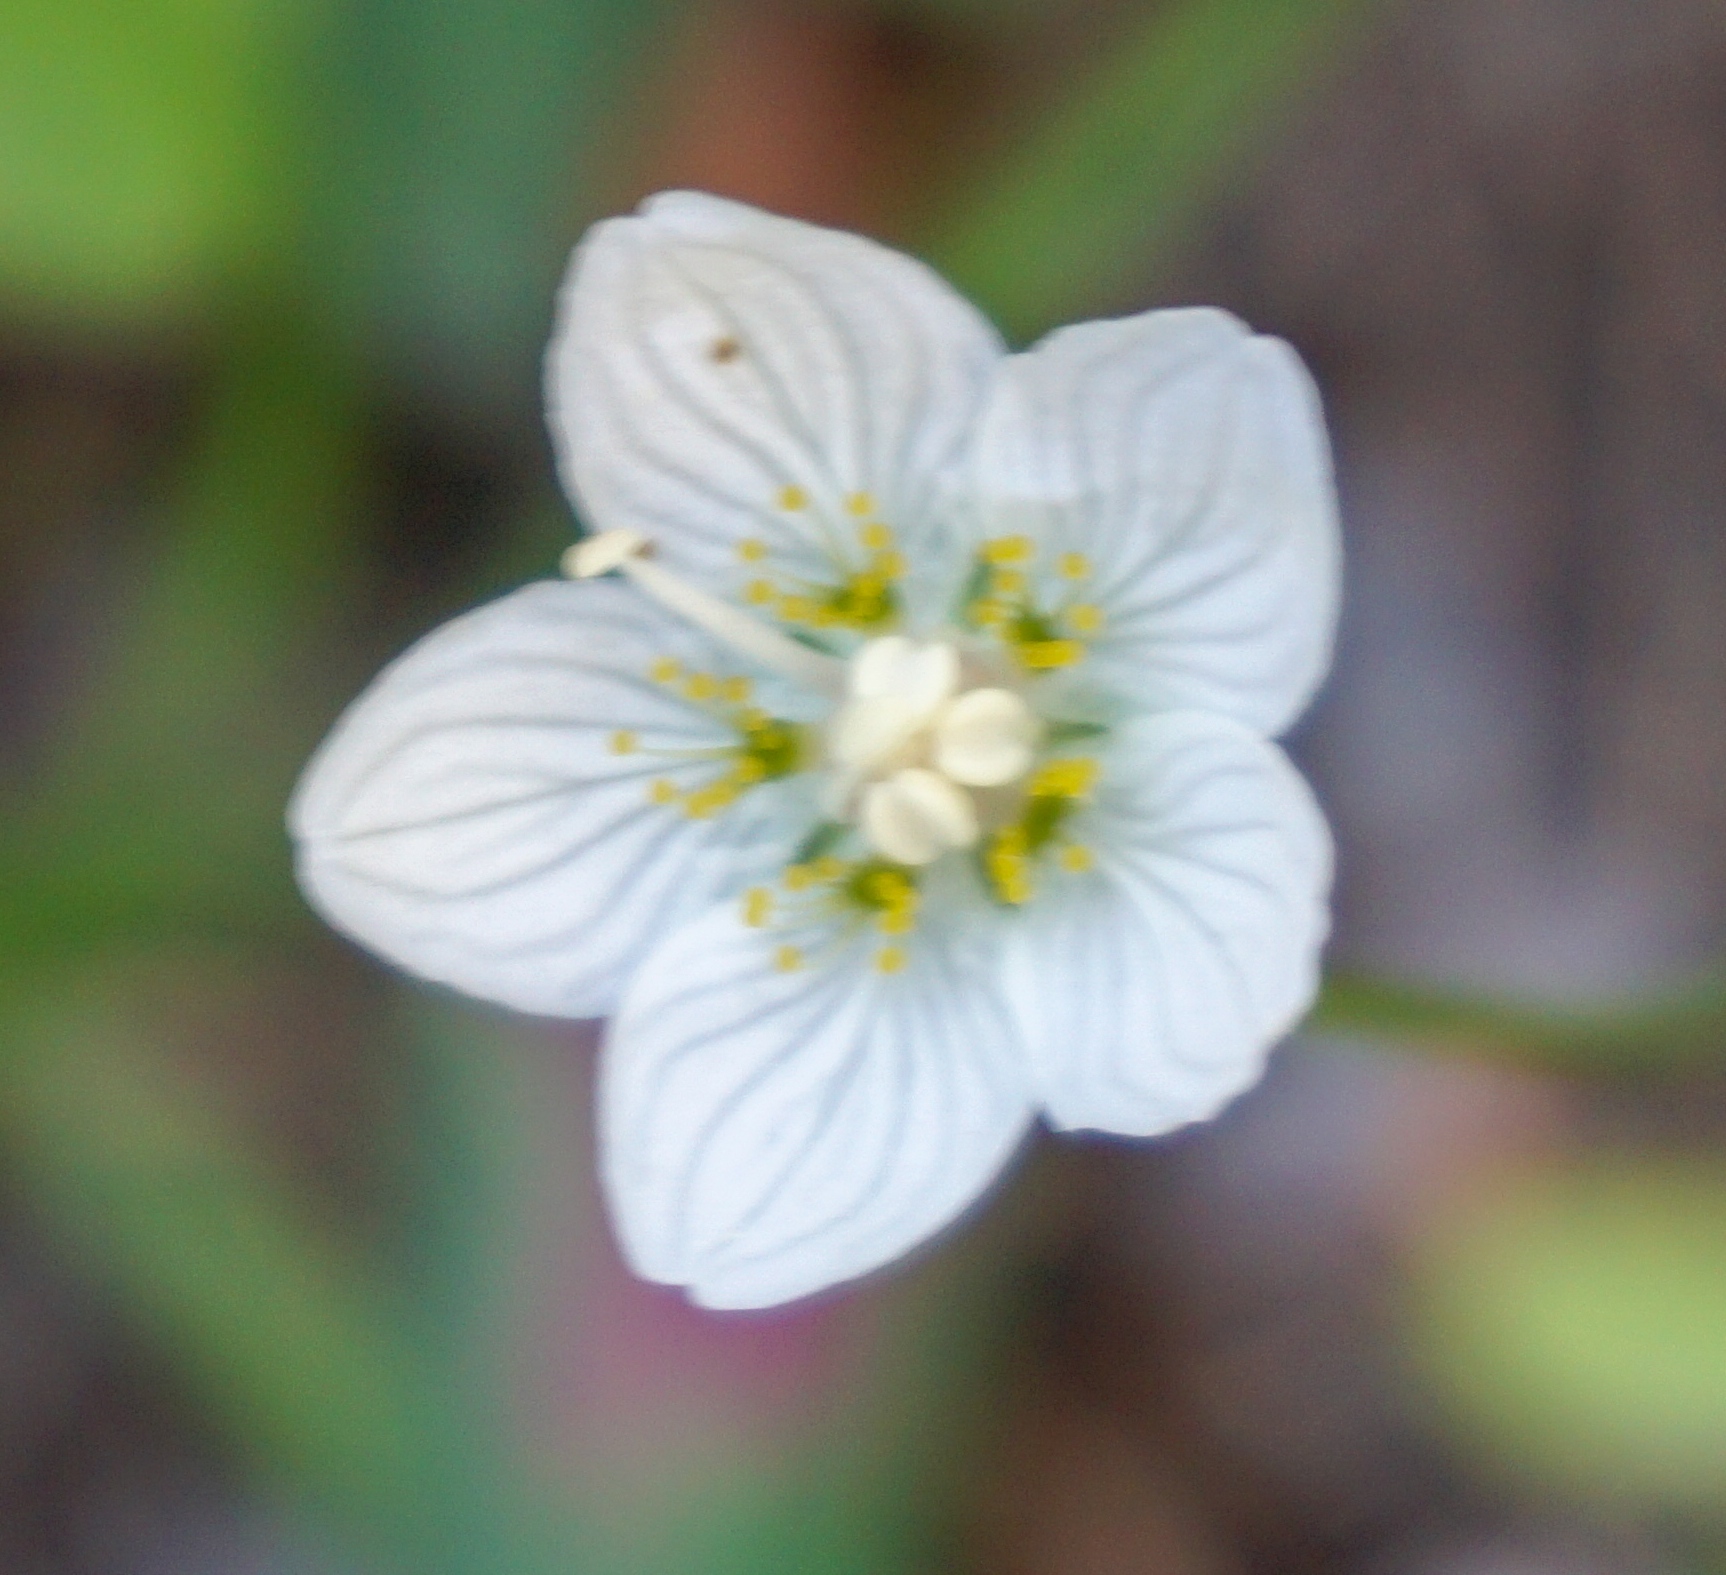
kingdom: Plantae
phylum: Tracheophyta
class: Magnoliopsida
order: Celastrales
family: Parnassiaceae
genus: Parnassia
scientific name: Parnassia palustris
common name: Grass-of-parnassus
